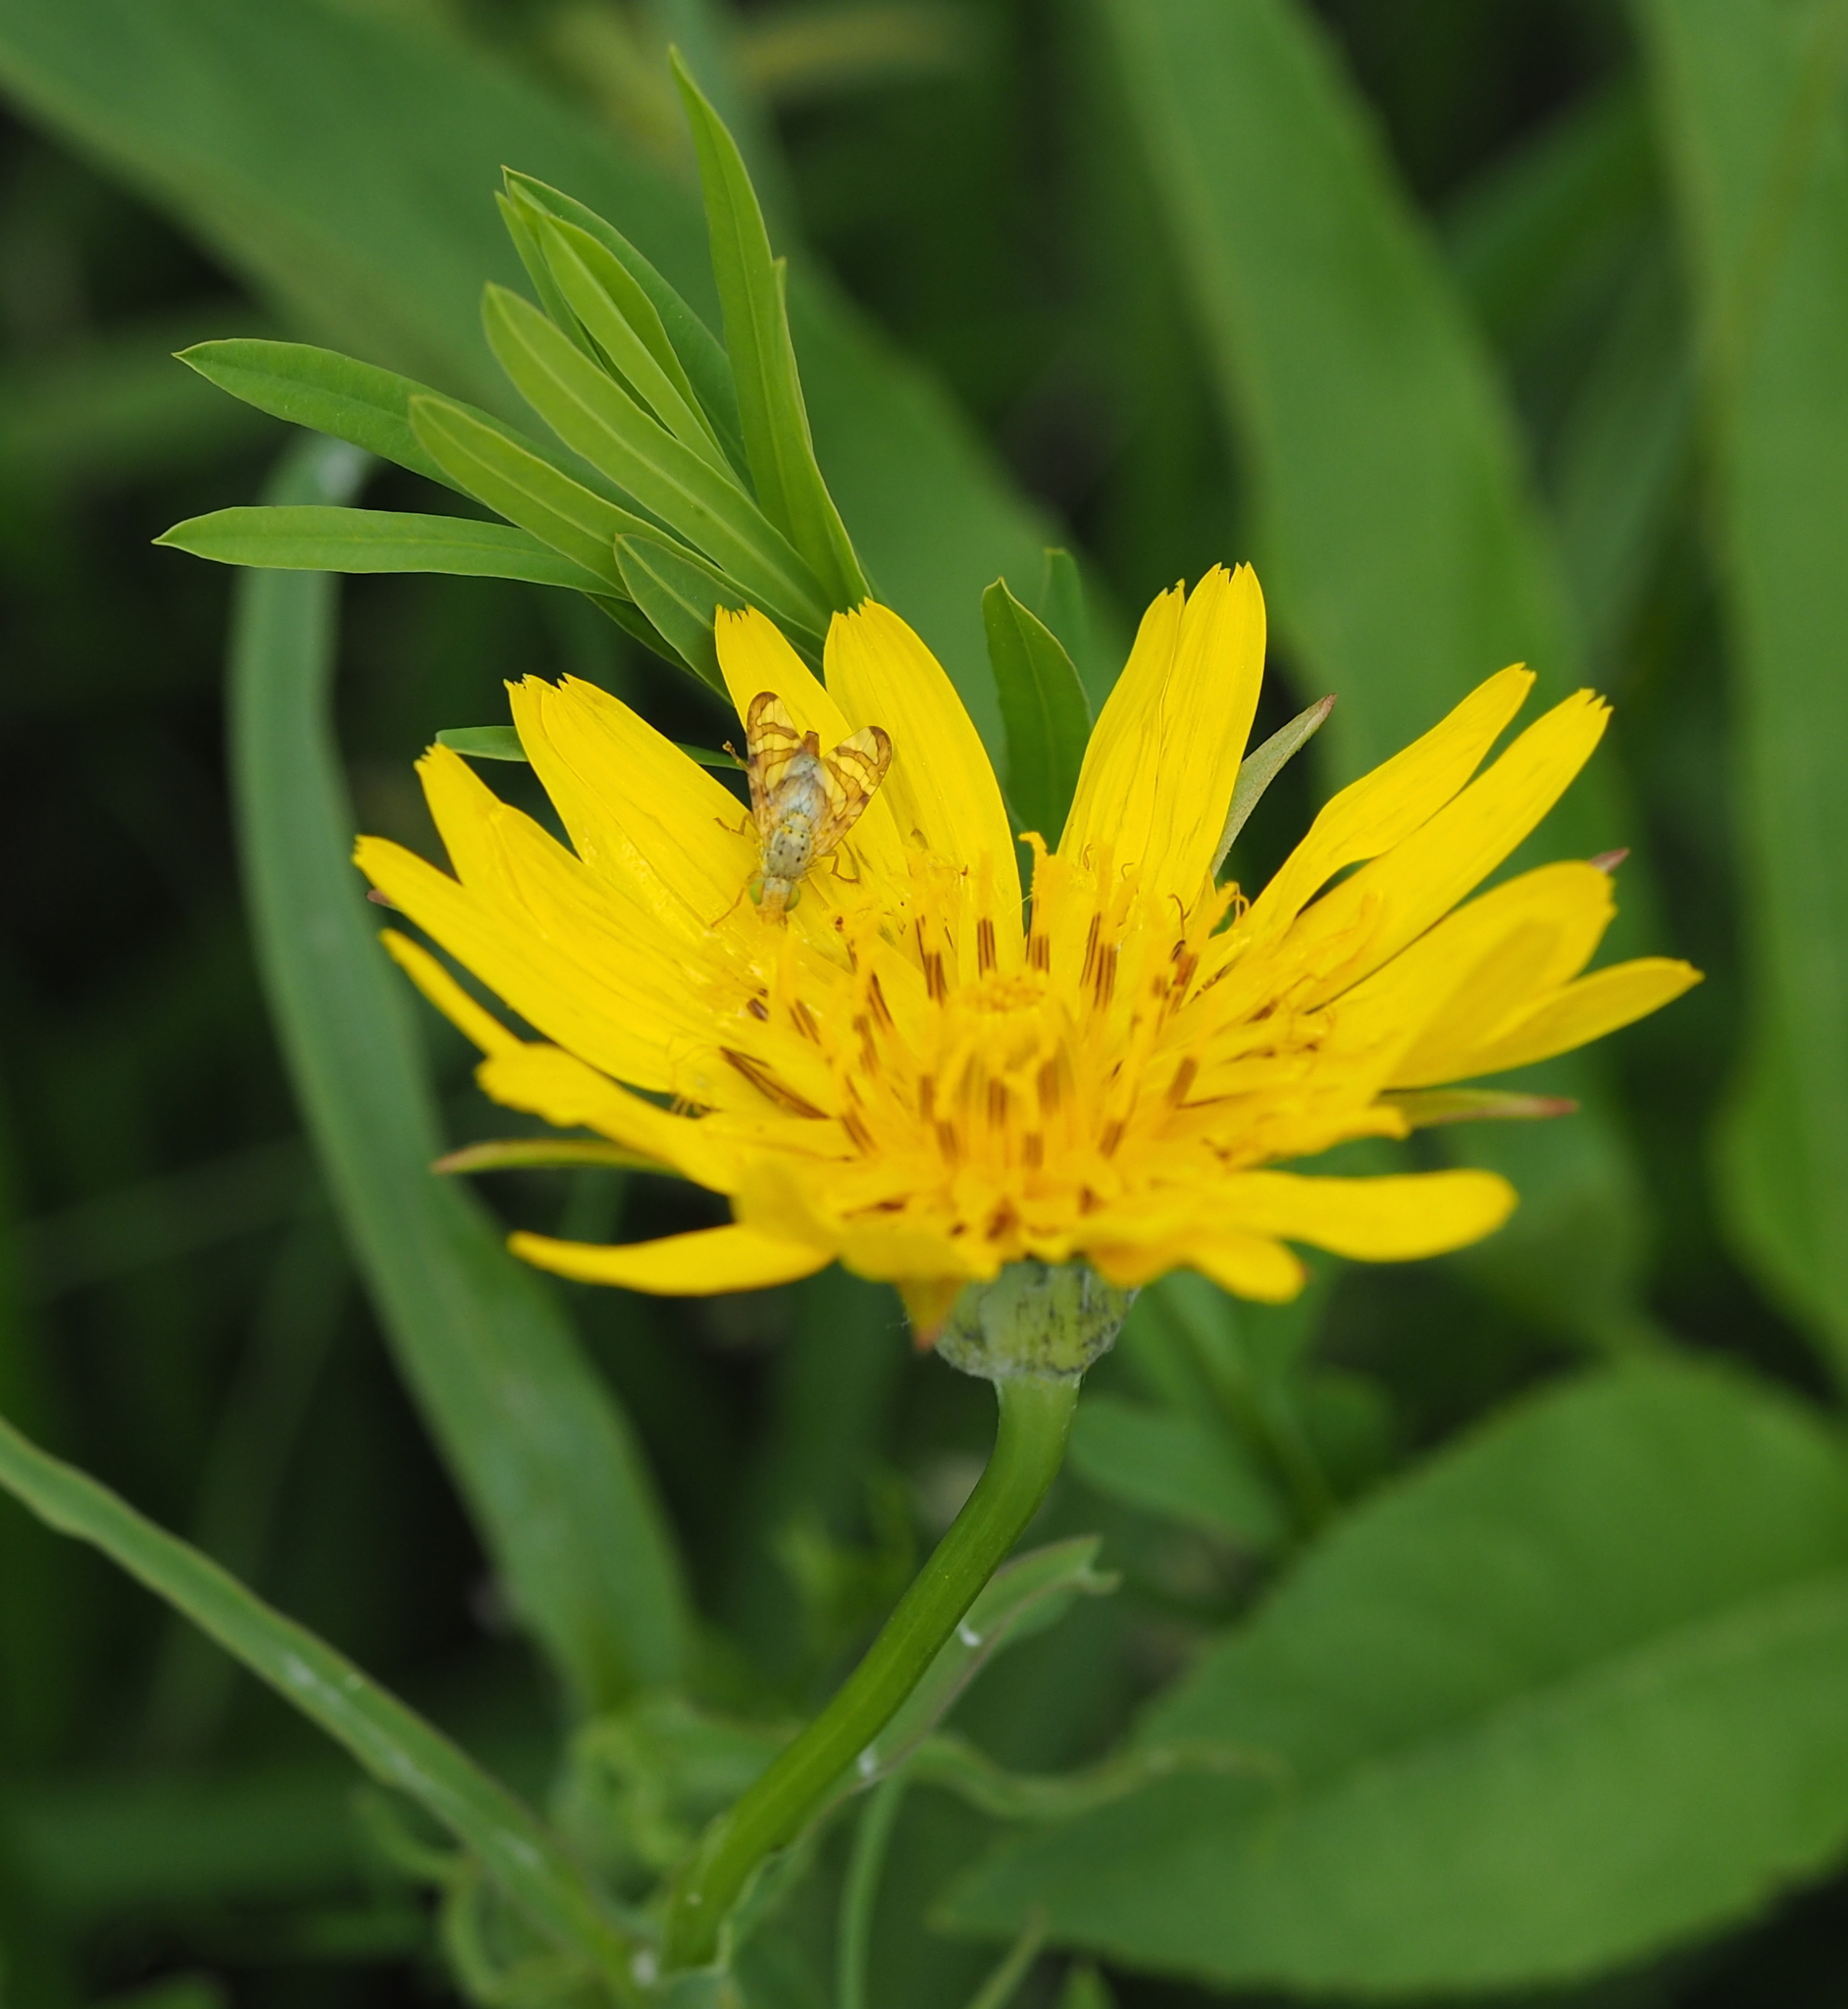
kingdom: Animalia
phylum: Arthropoda
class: Insecta
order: Diptera
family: Tephritidae
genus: Orellia
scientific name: Orellia falcata
